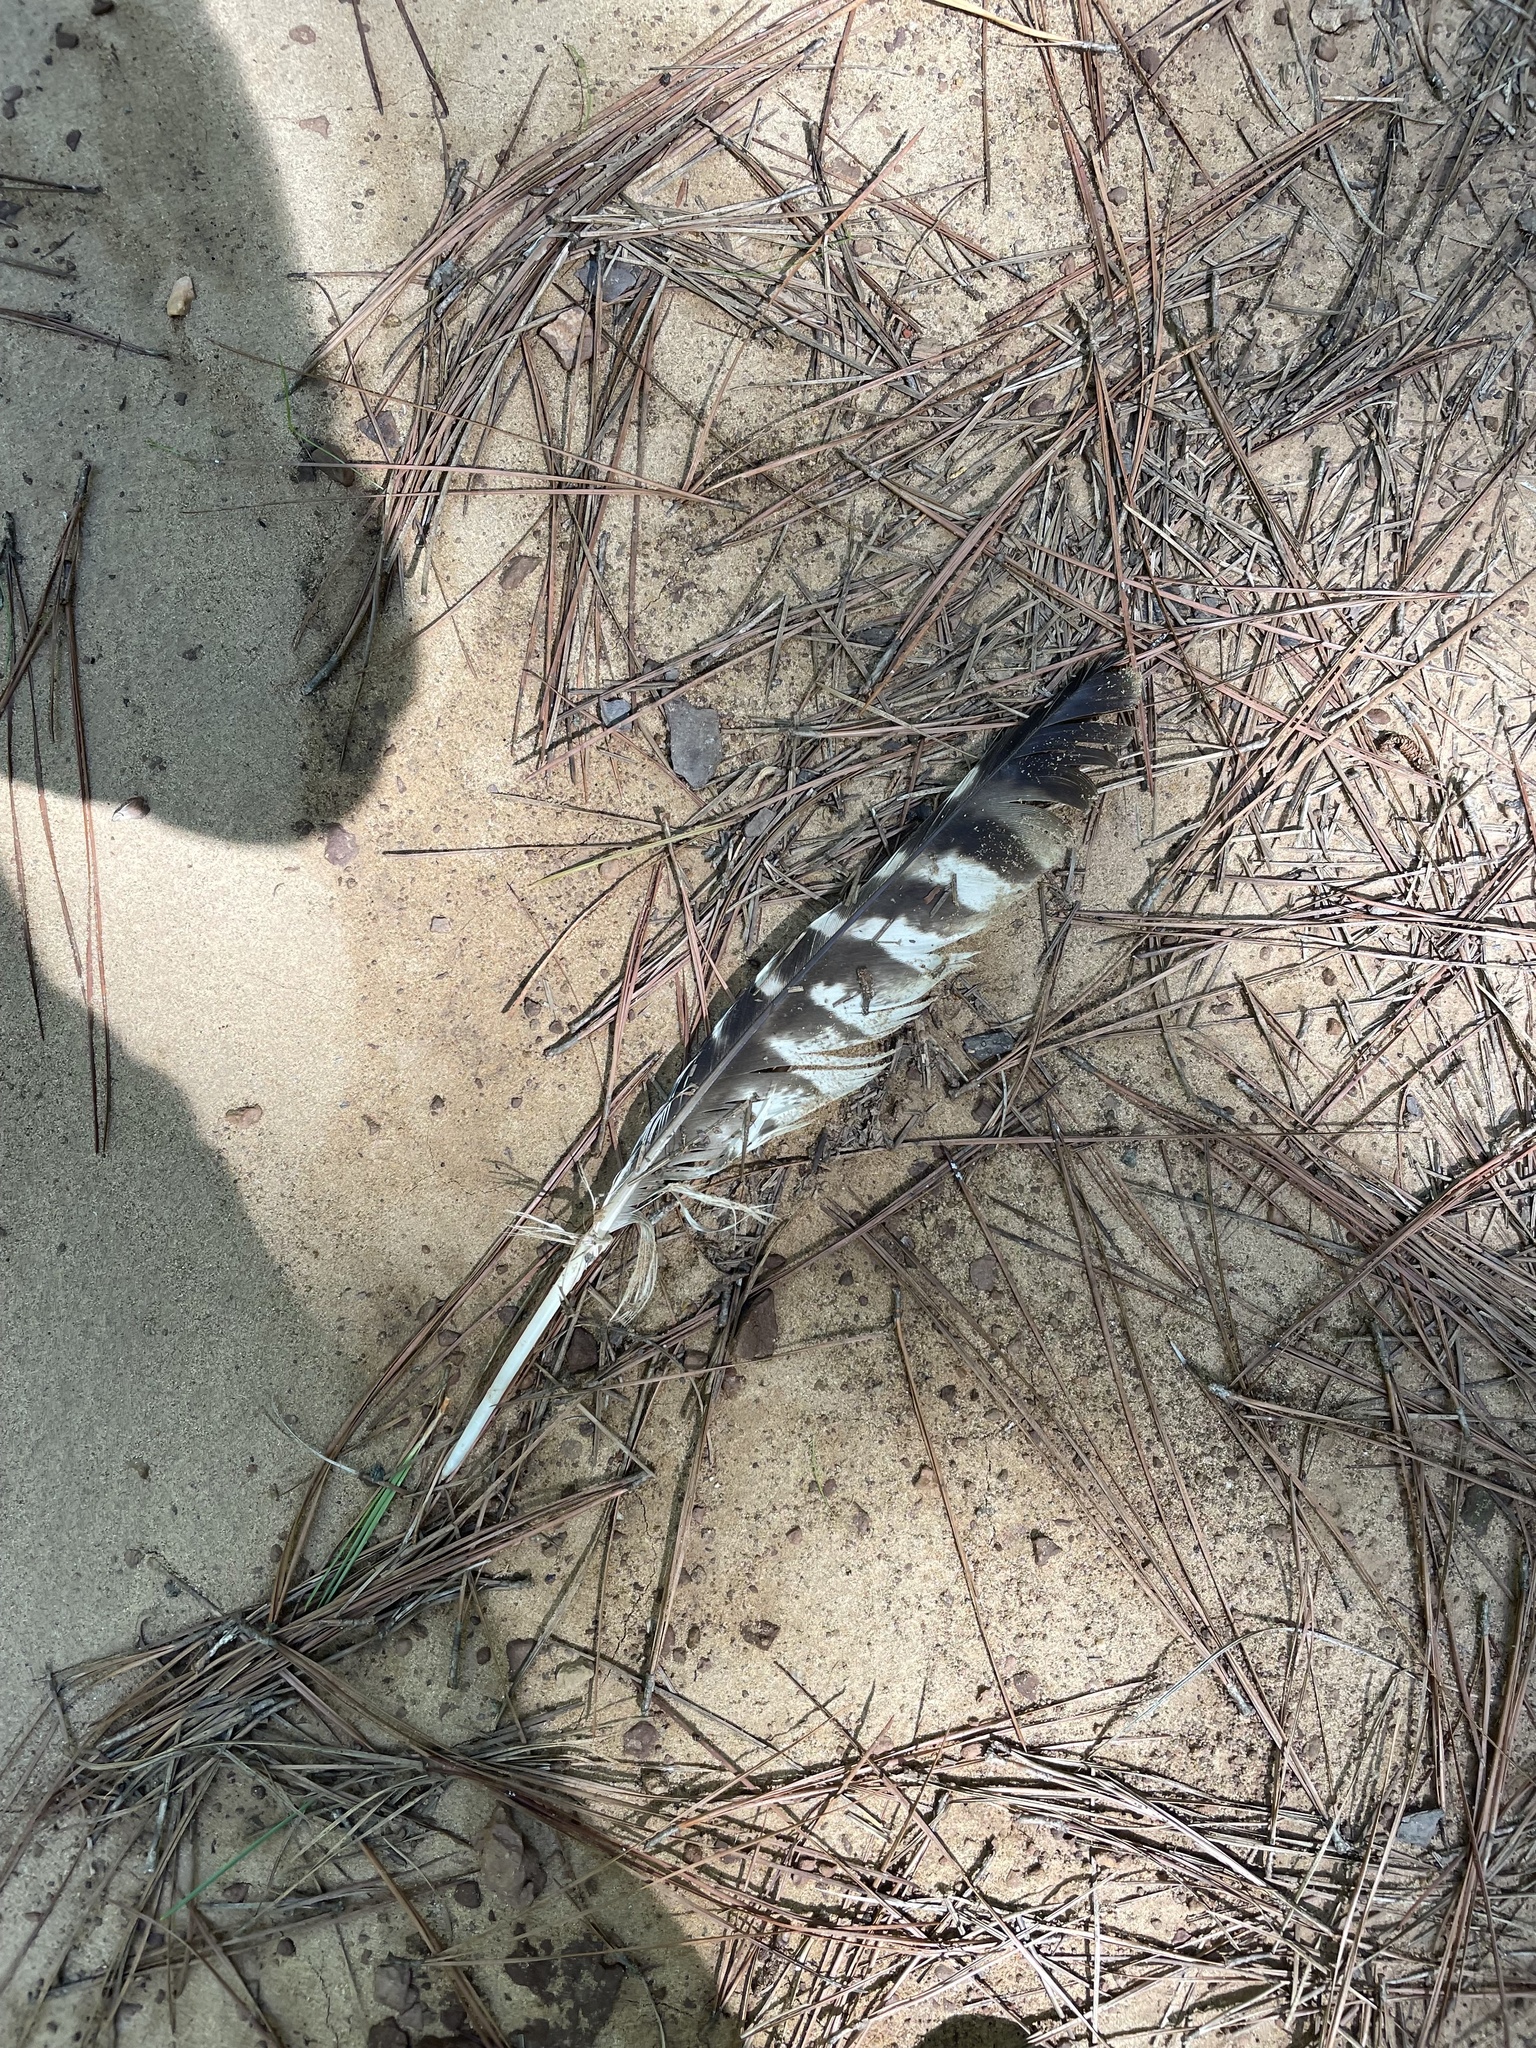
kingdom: Animalia
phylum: Chordata
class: Aves
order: Accipitriformes
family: Accipitridae
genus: Buteo
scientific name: Buteo lineatus
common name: Red-shouldered hawk
